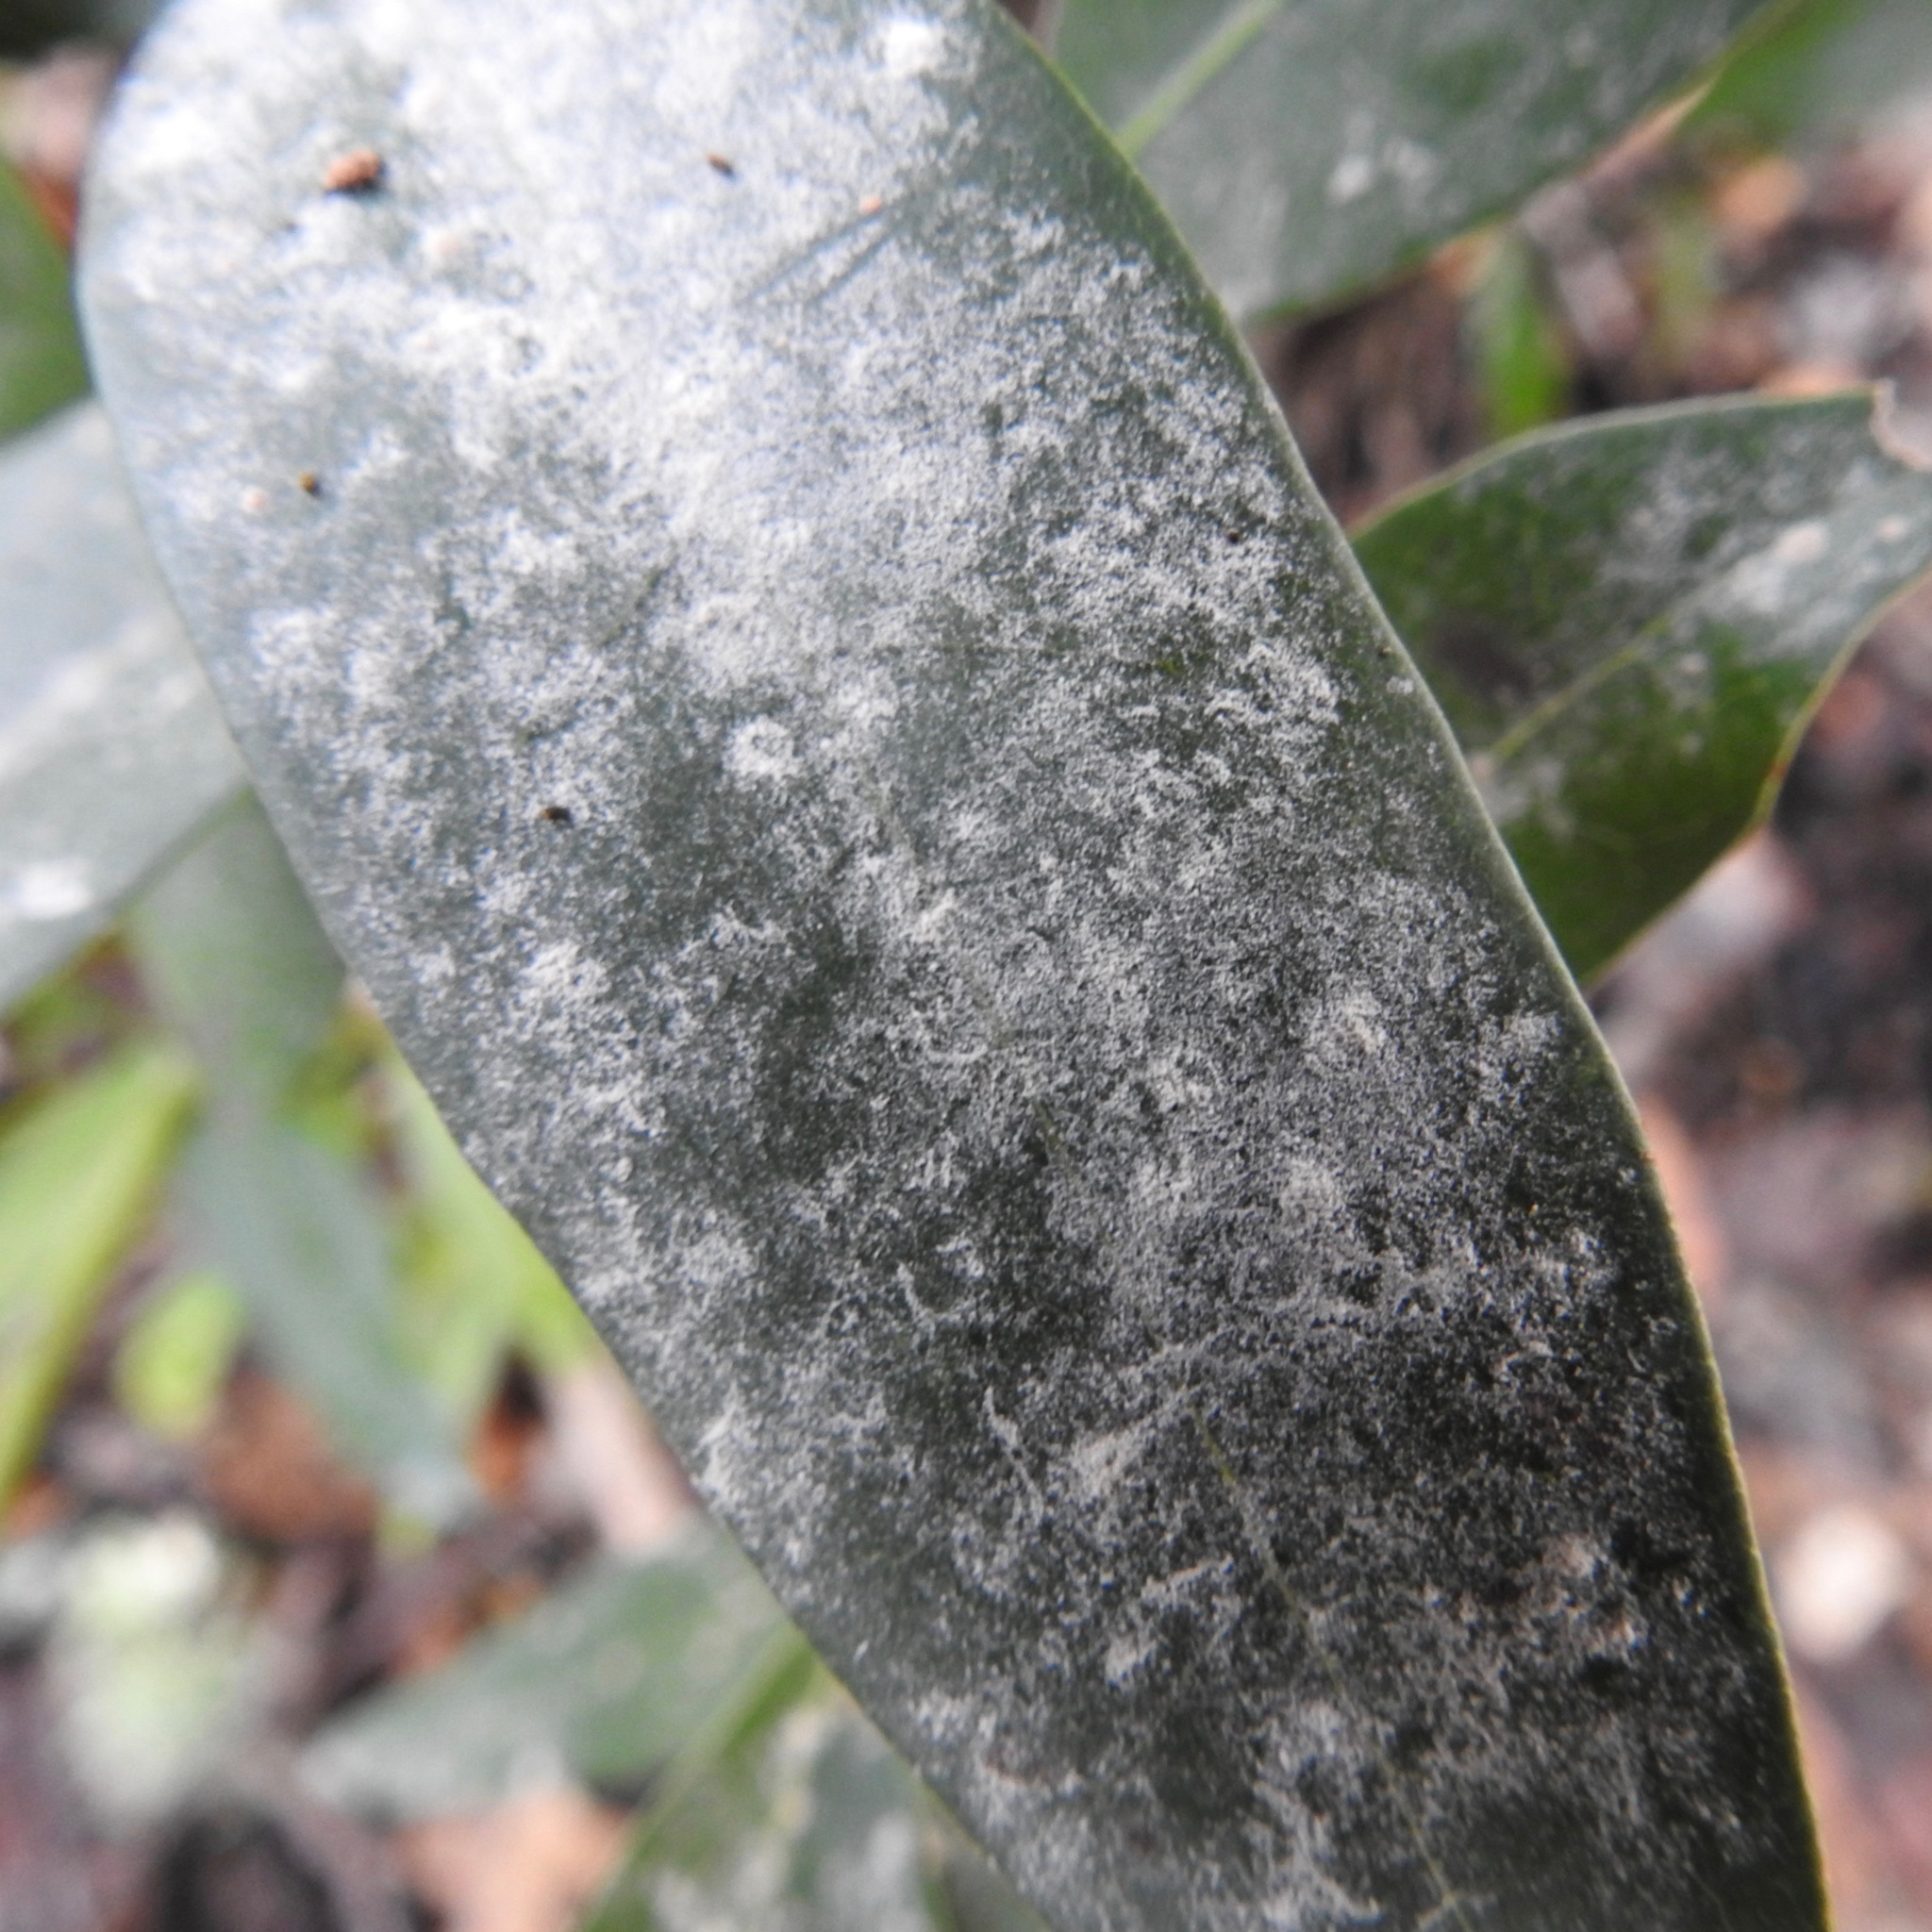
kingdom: Plantae
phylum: Tracheophyta
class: Magnoliopsida
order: Laurales
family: Lauraceae
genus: Umbellularia
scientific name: Umbellularia californica
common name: California bay
